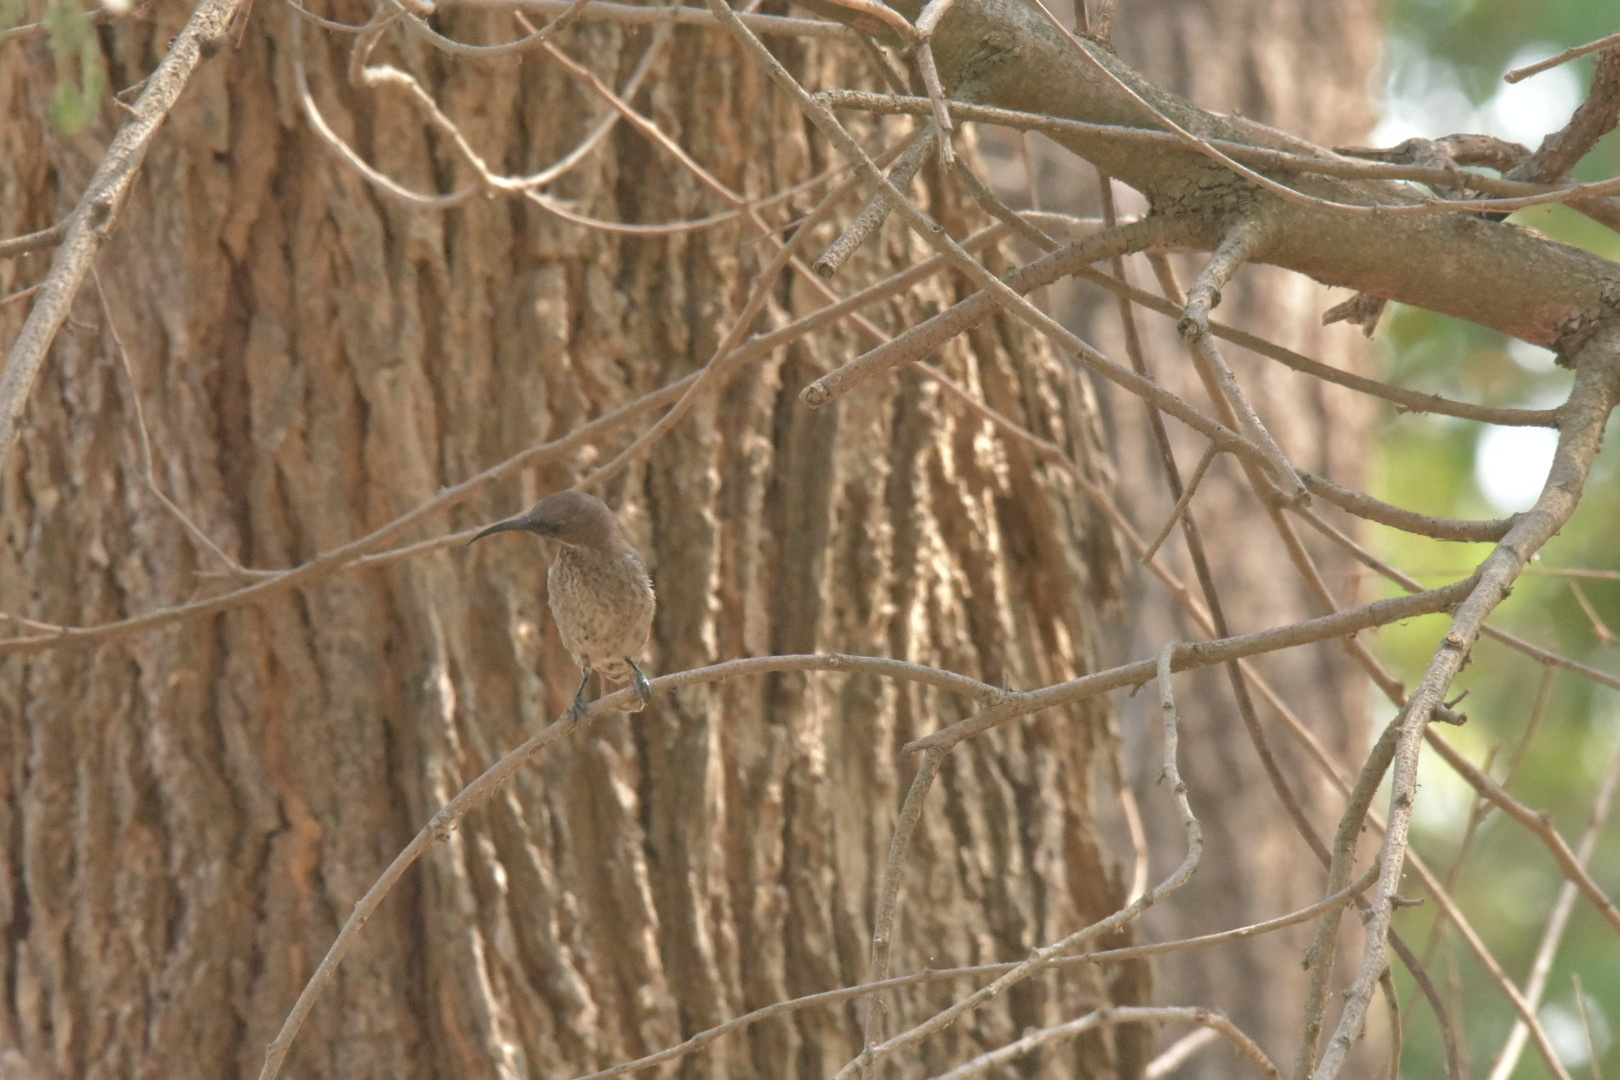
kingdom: Animalia
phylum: Chordata
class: Aves
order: Passeriformes
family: Nectariniidae
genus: Chalcomitra
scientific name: Chalcomitra senegalensis
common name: Scarlet-chested sunbird
